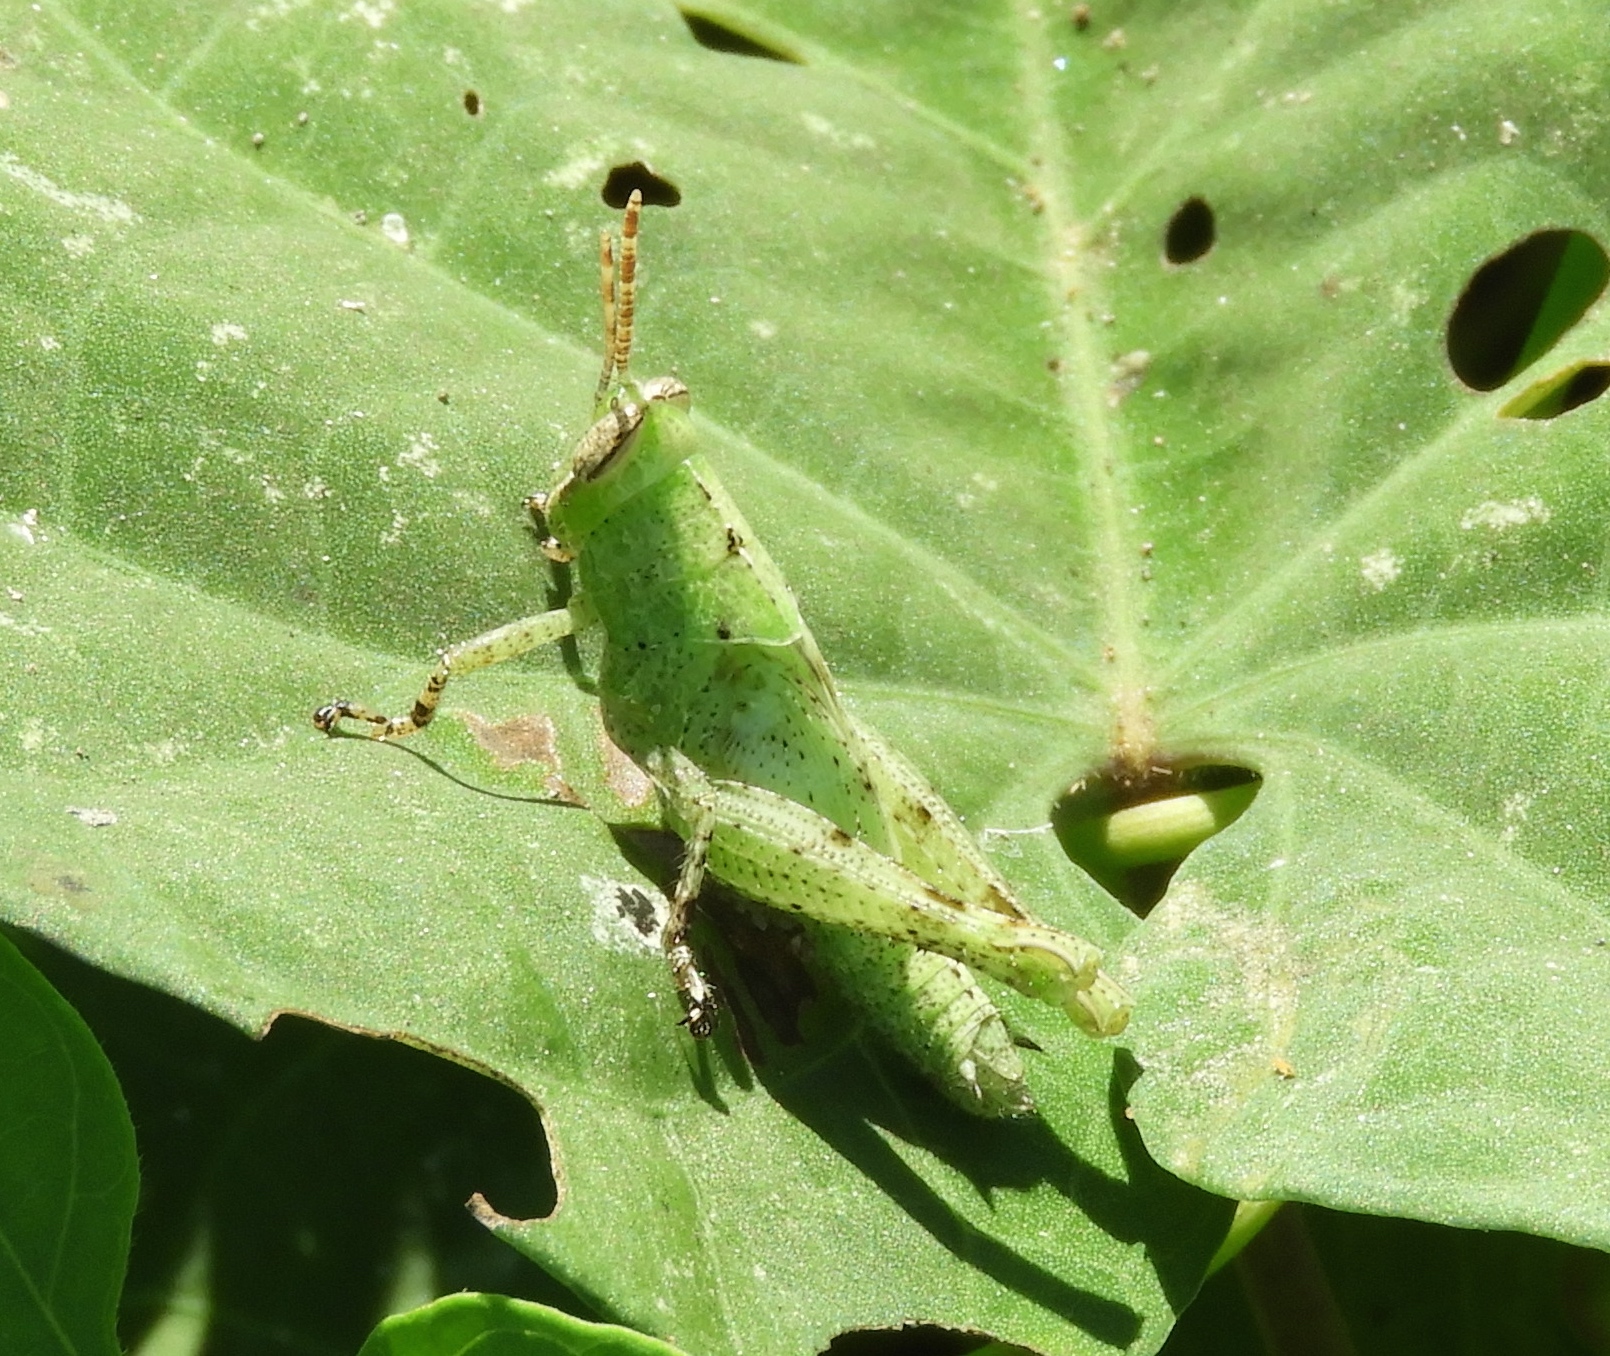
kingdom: Animalia
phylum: Arthropoda
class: Insecta
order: Orthoptera
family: Acrididae
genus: Abracris
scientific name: Abracris flavolineata
